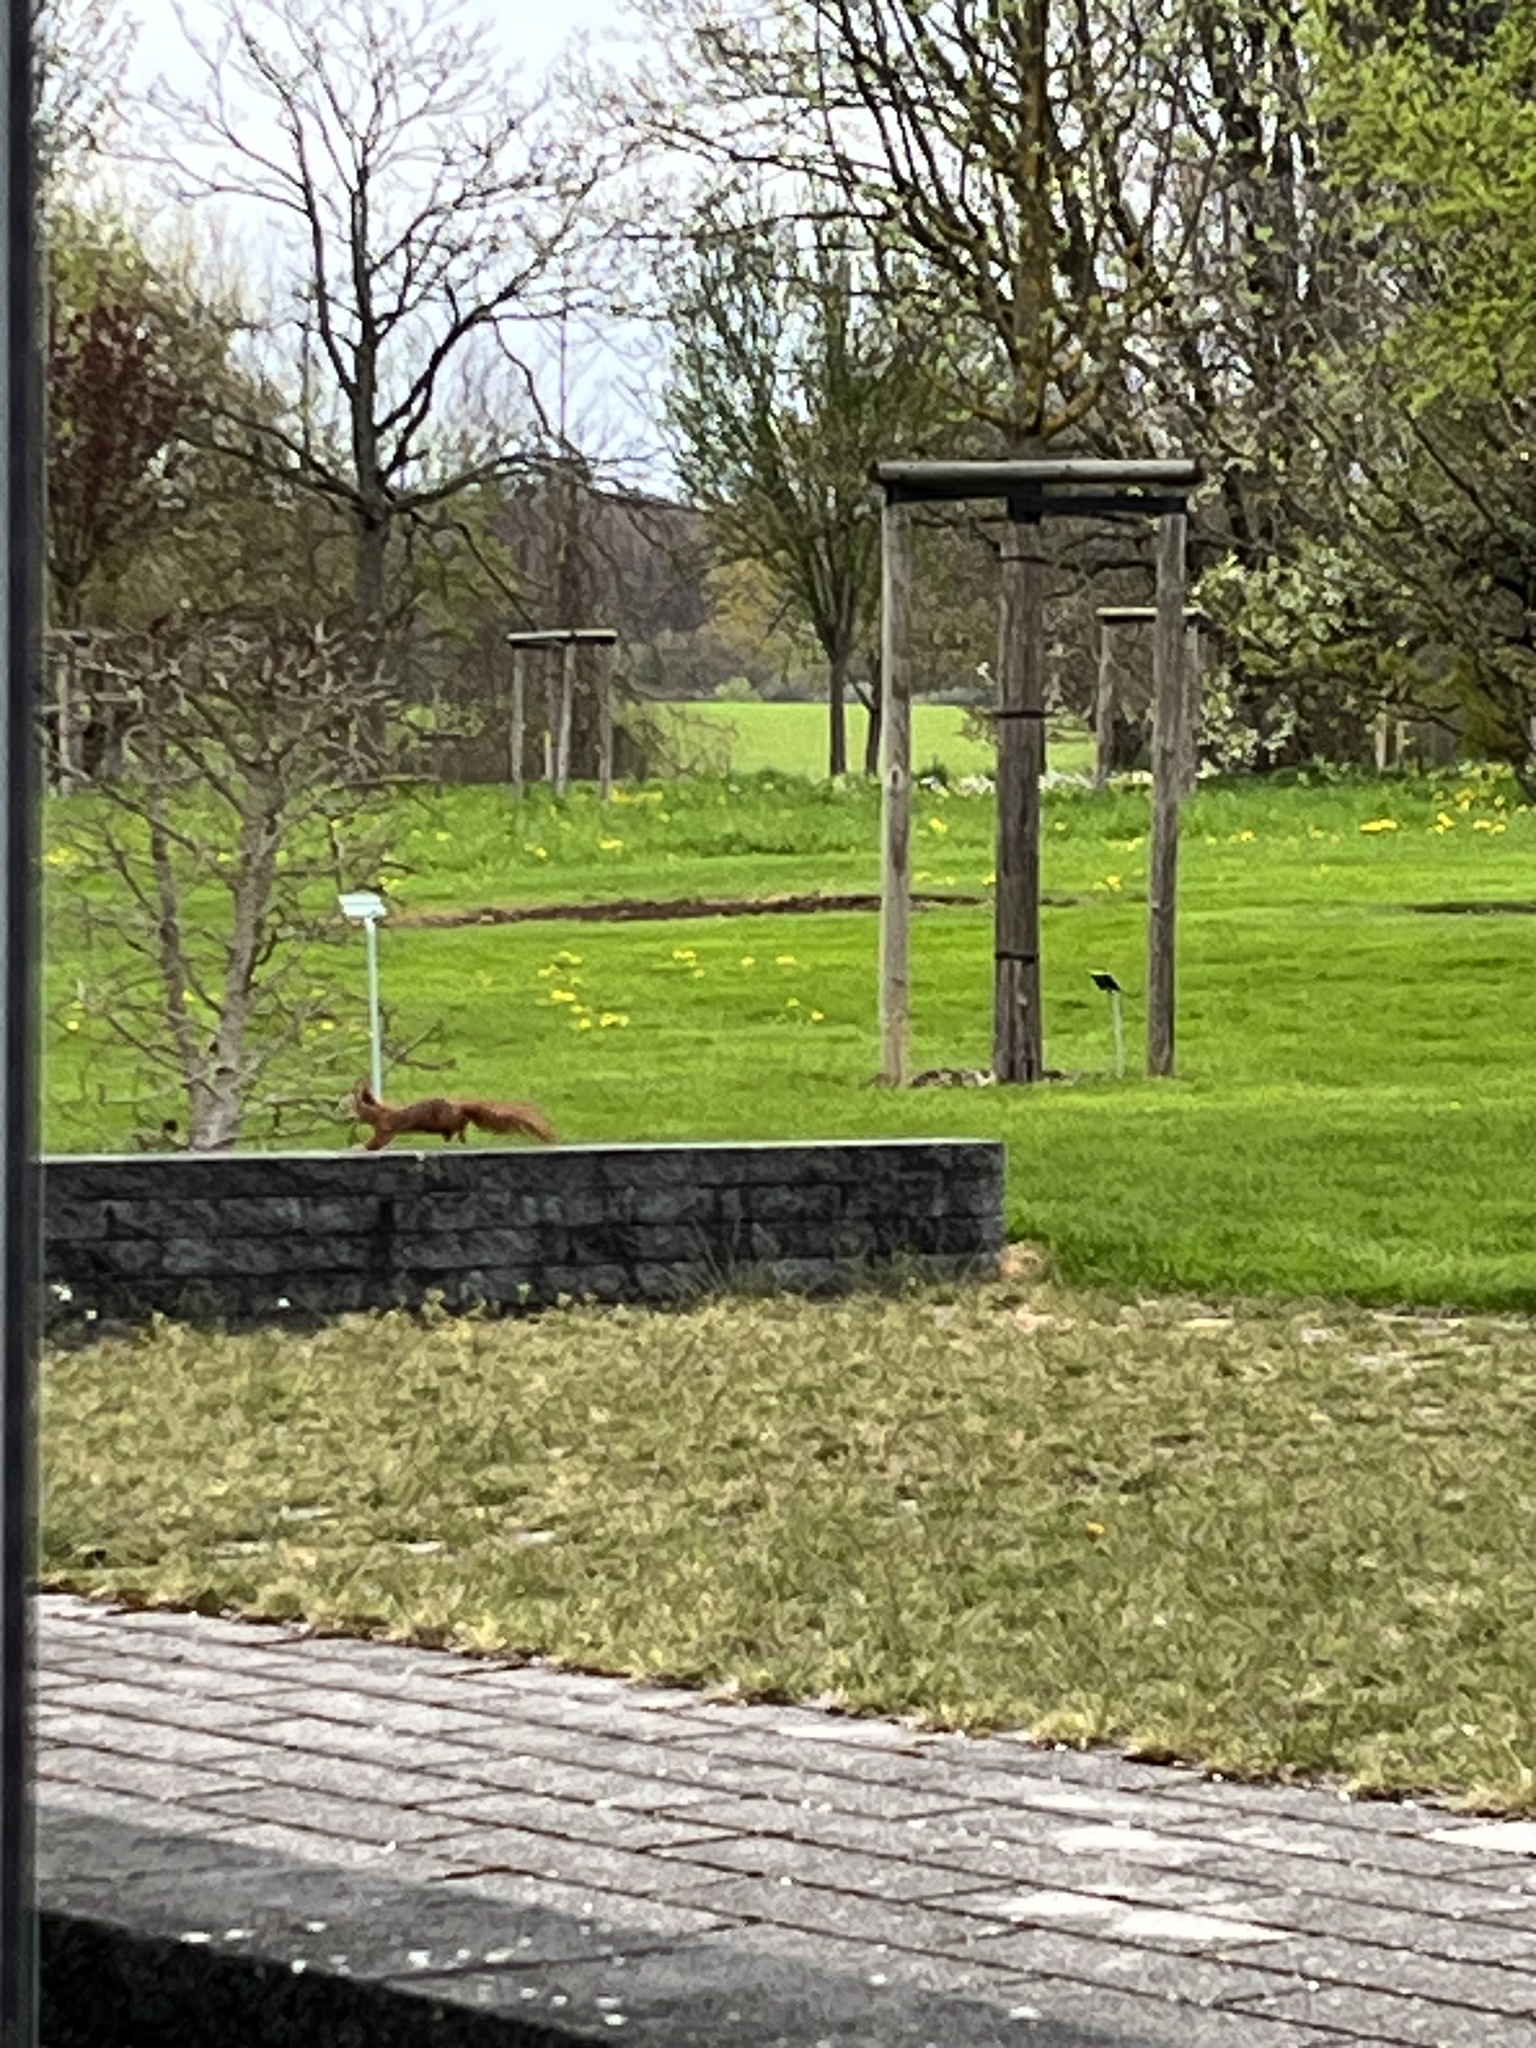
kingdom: Animalia
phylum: Chordata
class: Mammalia
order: Rodentia
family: Sciuridae
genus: Sciurus
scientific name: Sciurus vulgaris
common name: Eurasian red squirrel
